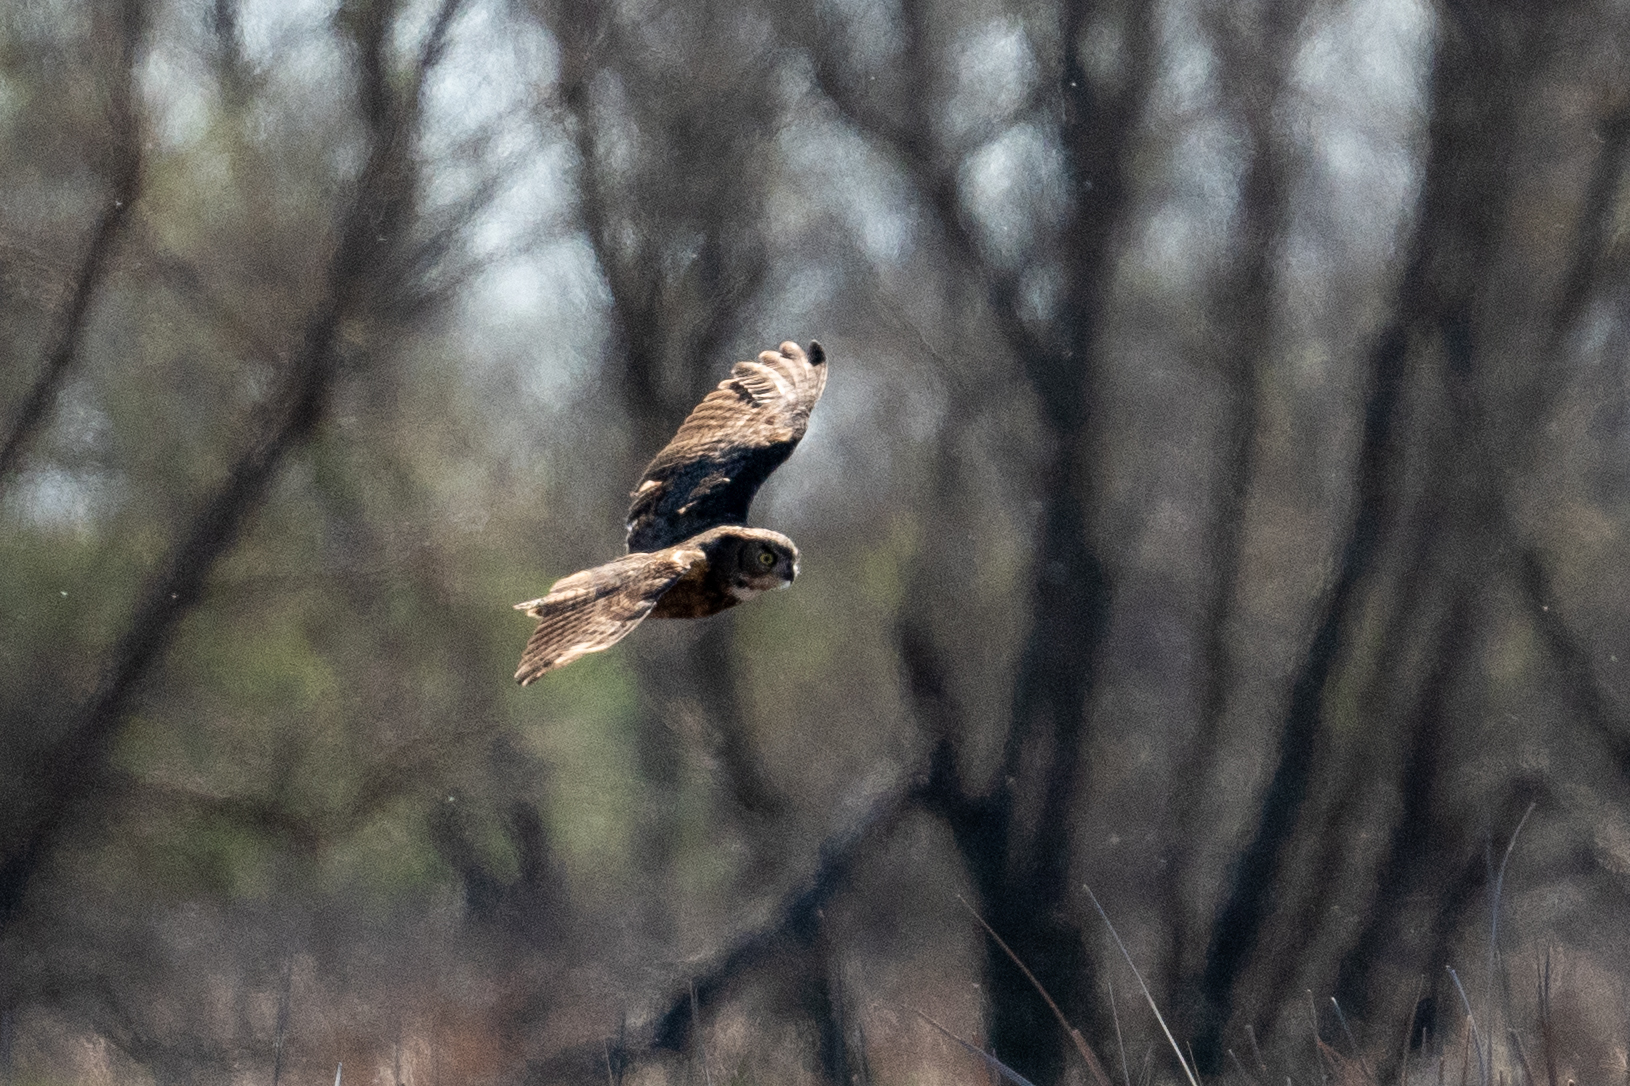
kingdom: Animalia
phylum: Chordata
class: Aves
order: Strigiformes
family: Strigidae
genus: Bubo
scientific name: Bubo virginianus
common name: Great horned owl
